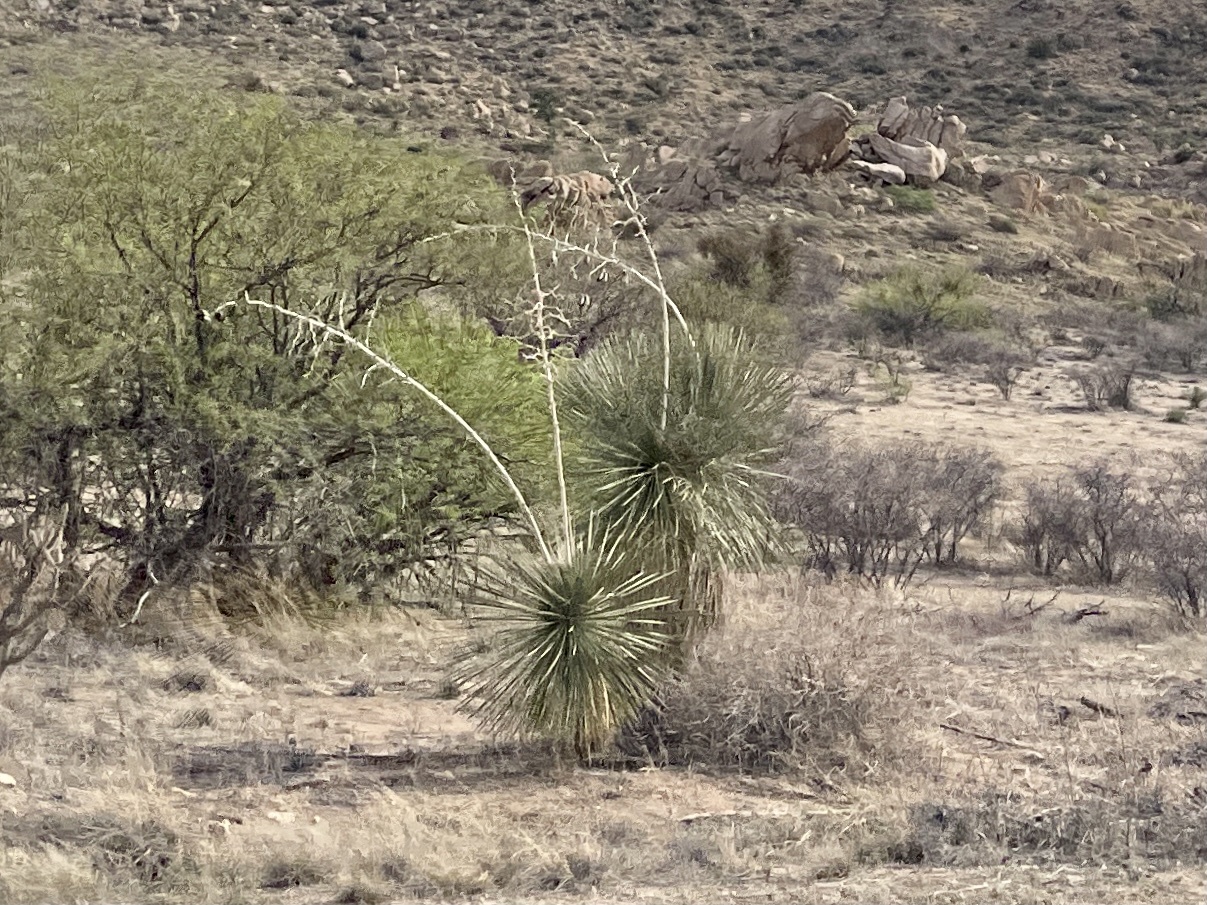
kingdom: Plantae
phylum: Tracheophyta
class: Liliopsida
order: Asparagales
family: Asparagaceae
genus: Yucca
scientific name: Yucca elata
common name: Palmella
